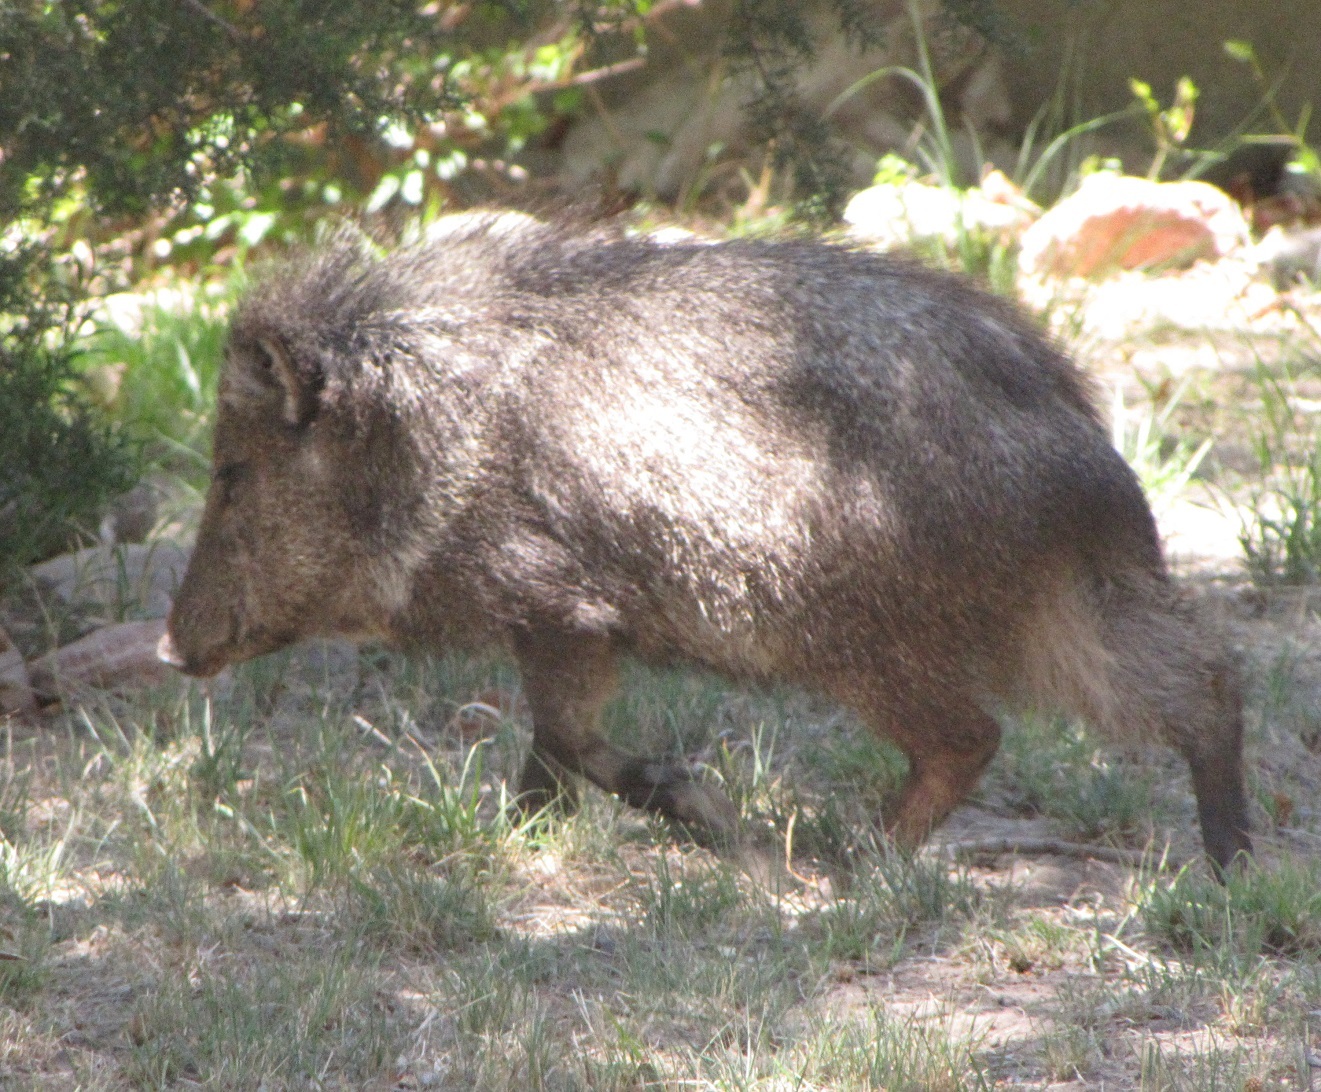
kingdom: Animalia
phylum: Chordata
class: Mammalia
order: Artiodactyla
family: Tayassuidae
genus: Pecari
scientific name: Pecari tajacu
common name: Collared peccary
